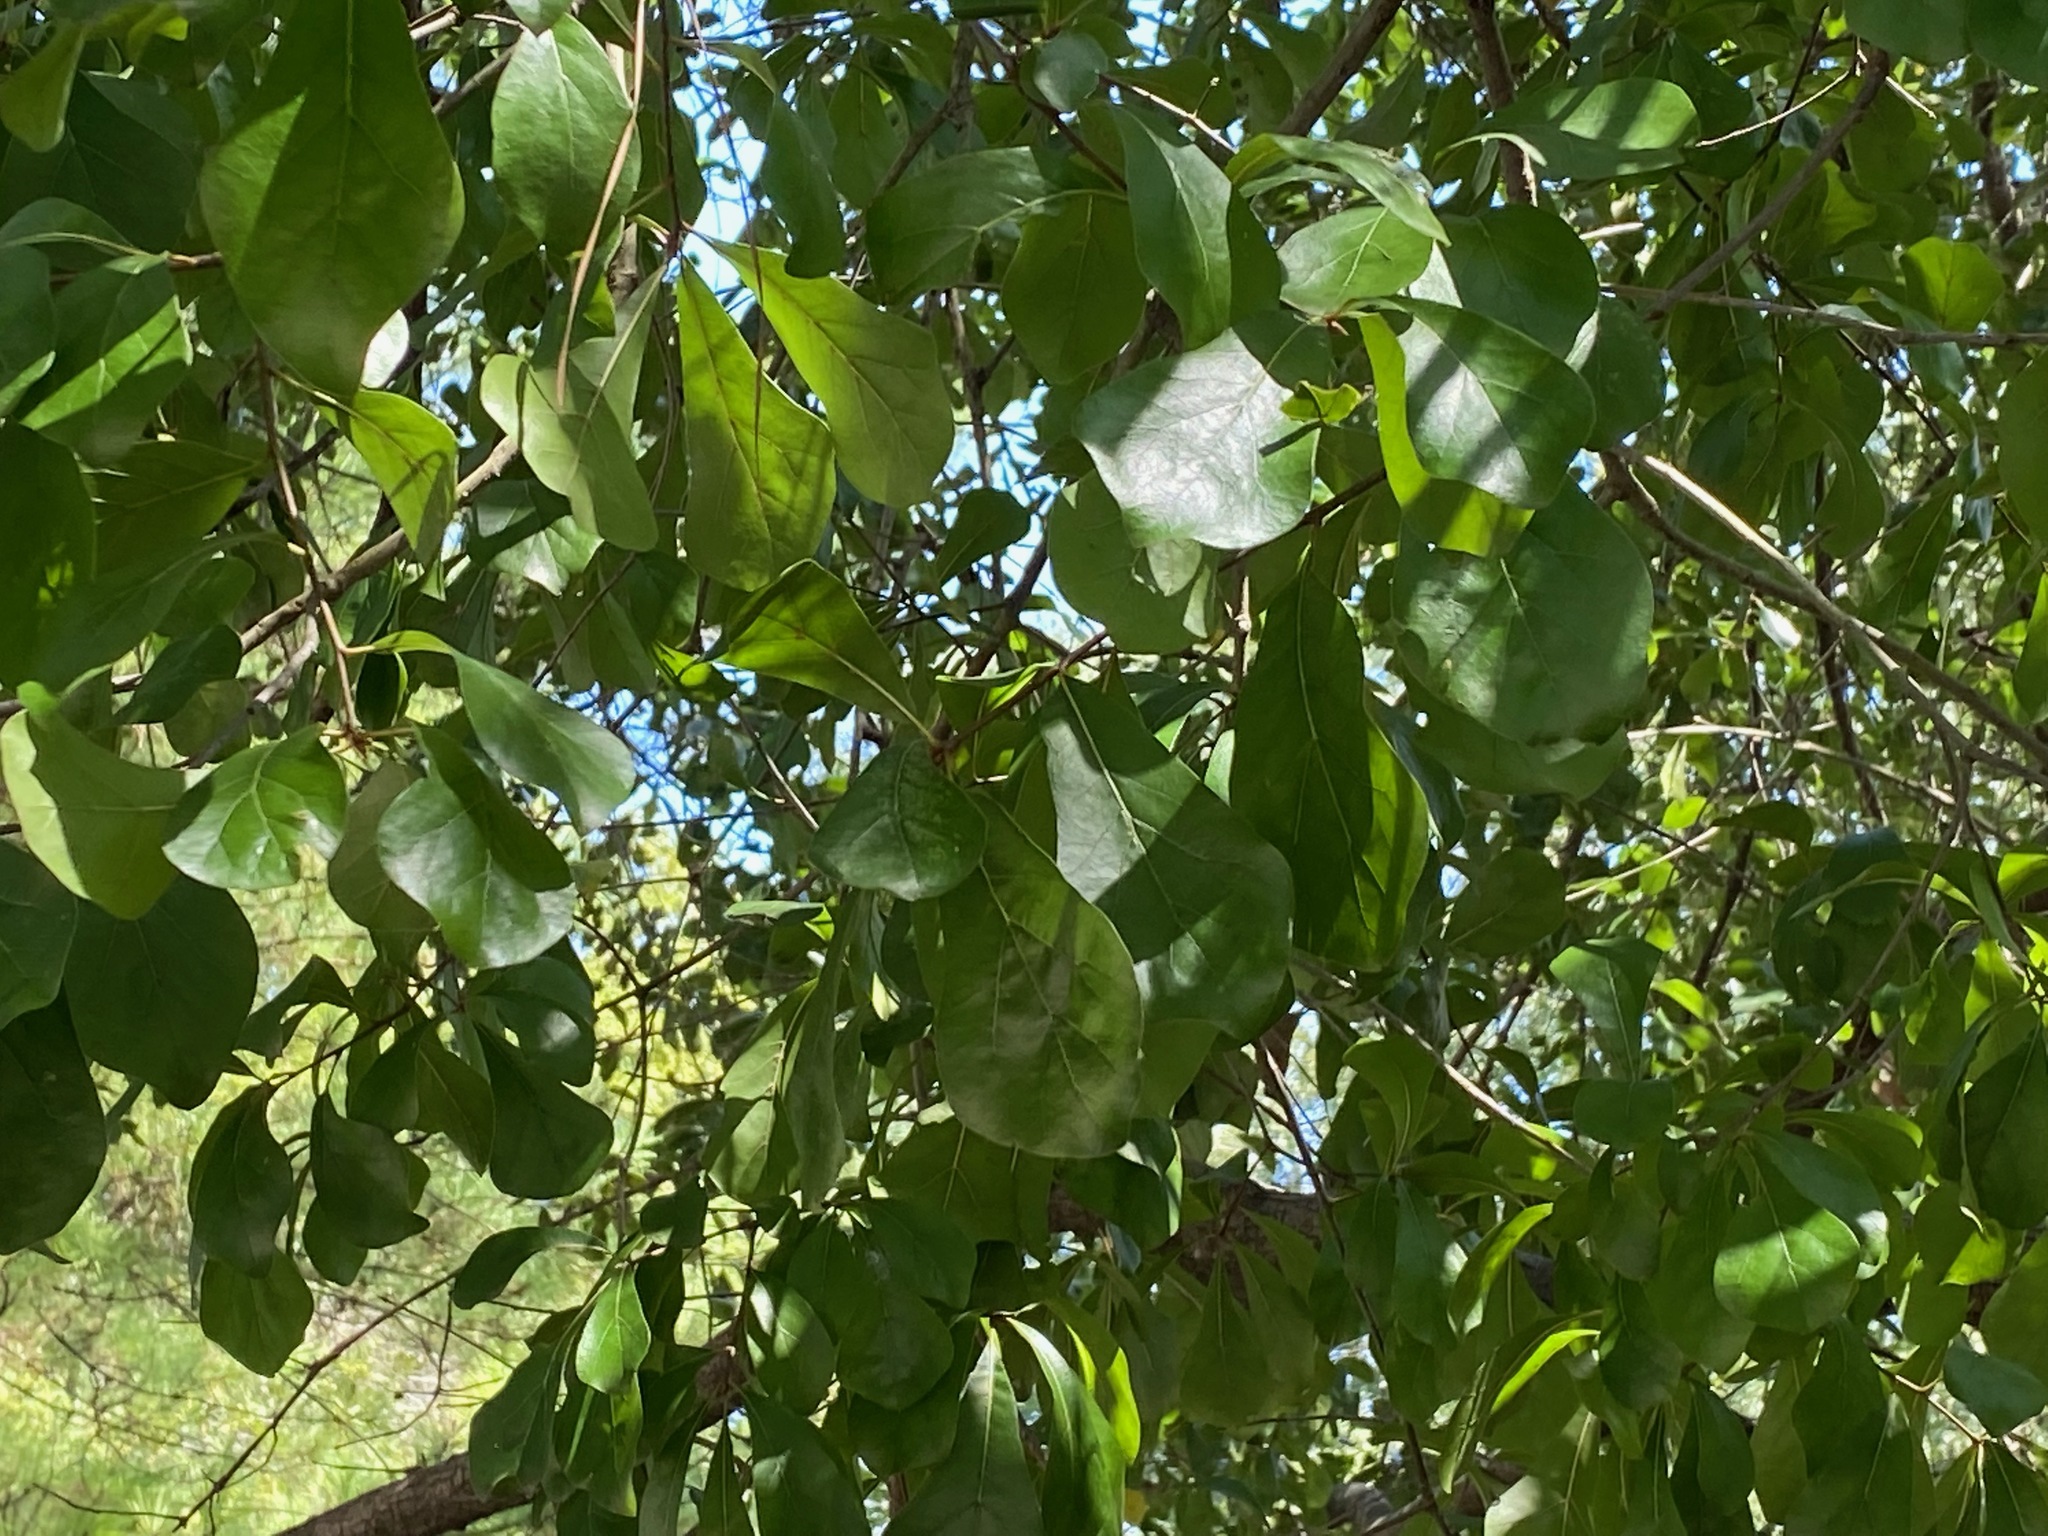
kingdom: Plantae
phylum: Tracheophyta
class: Magnoliopsida
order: Fagales
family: Fagaceae
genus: Quercus
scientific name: Quercus nigra
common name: Water oak
